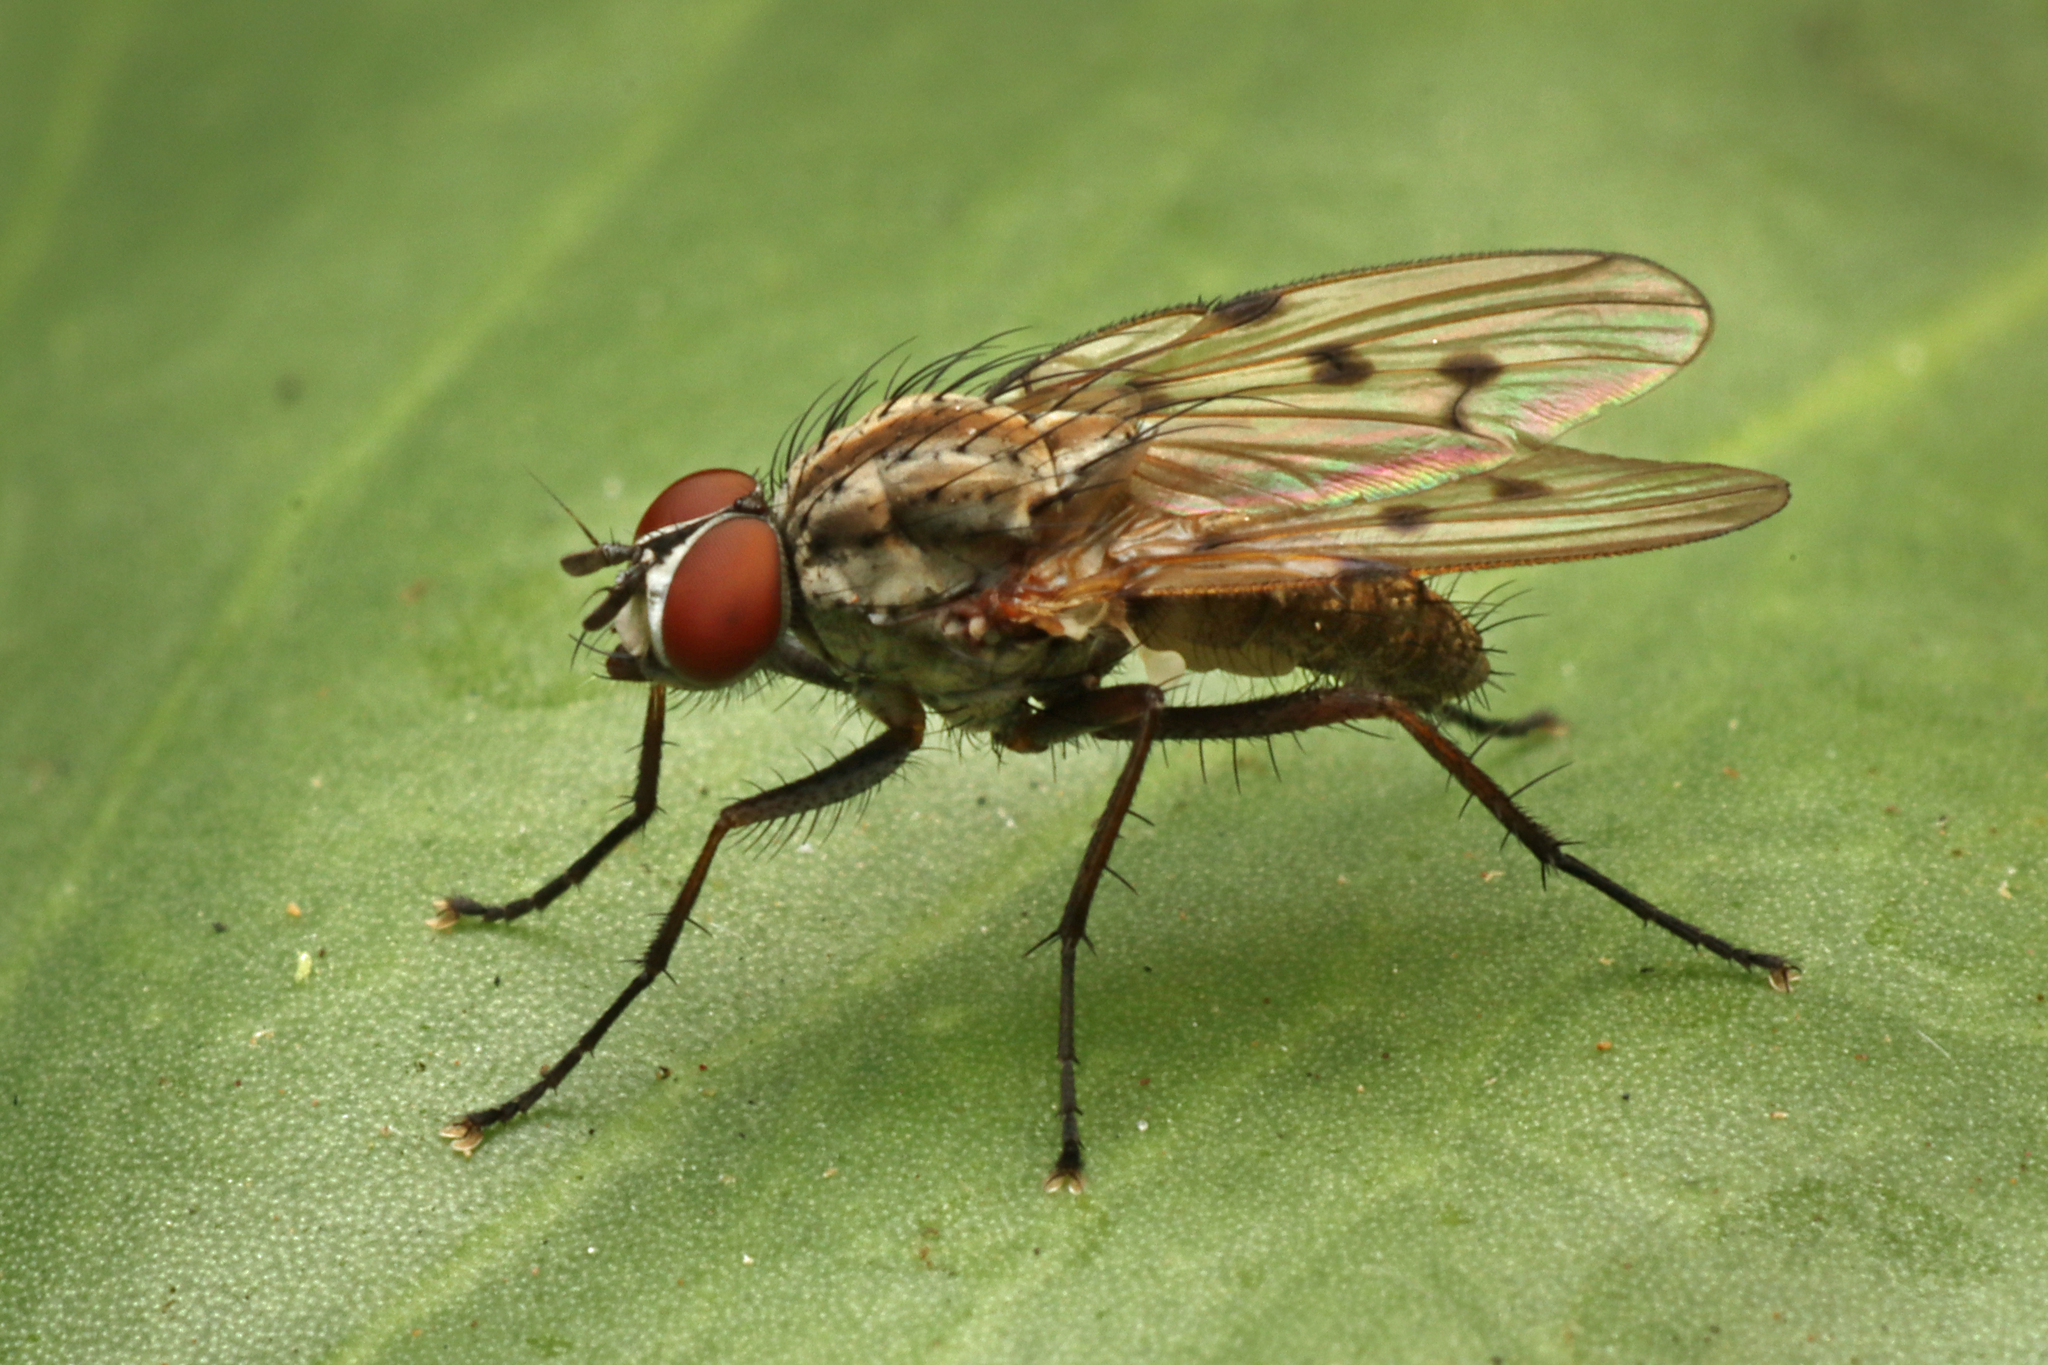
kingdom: Animalia
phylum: Arthropoda
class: Insecta
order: Diptera
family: Anthomyiidae
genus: Anthomyia
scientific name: Anthomyia punctipennis
